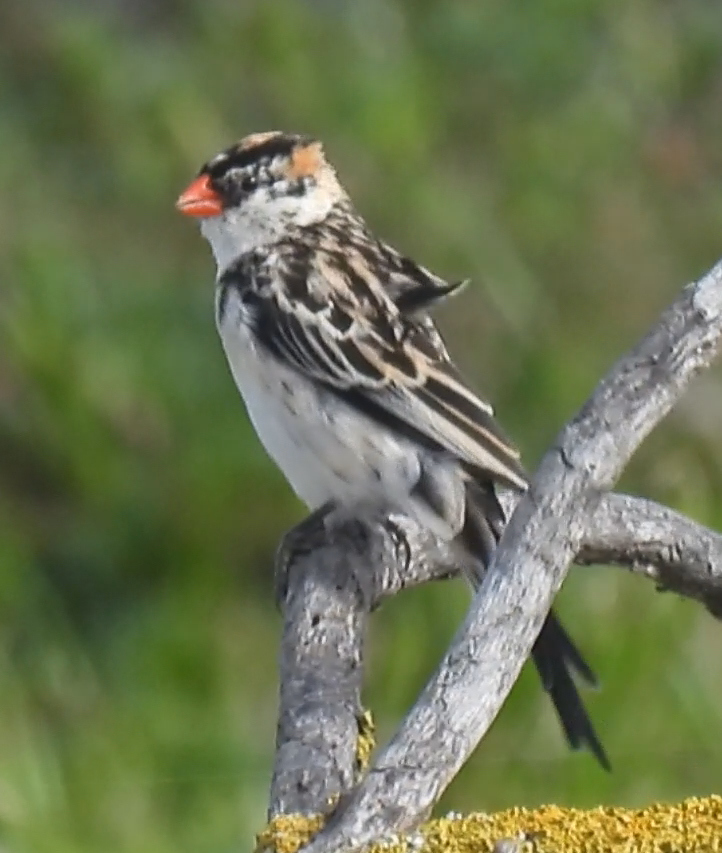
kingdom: Animalia
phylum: Chordata
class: Aves
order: Passeriformes
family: Viduidae
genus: Vidua
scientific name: Vidua macroura
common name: Pin-tailed whydah
